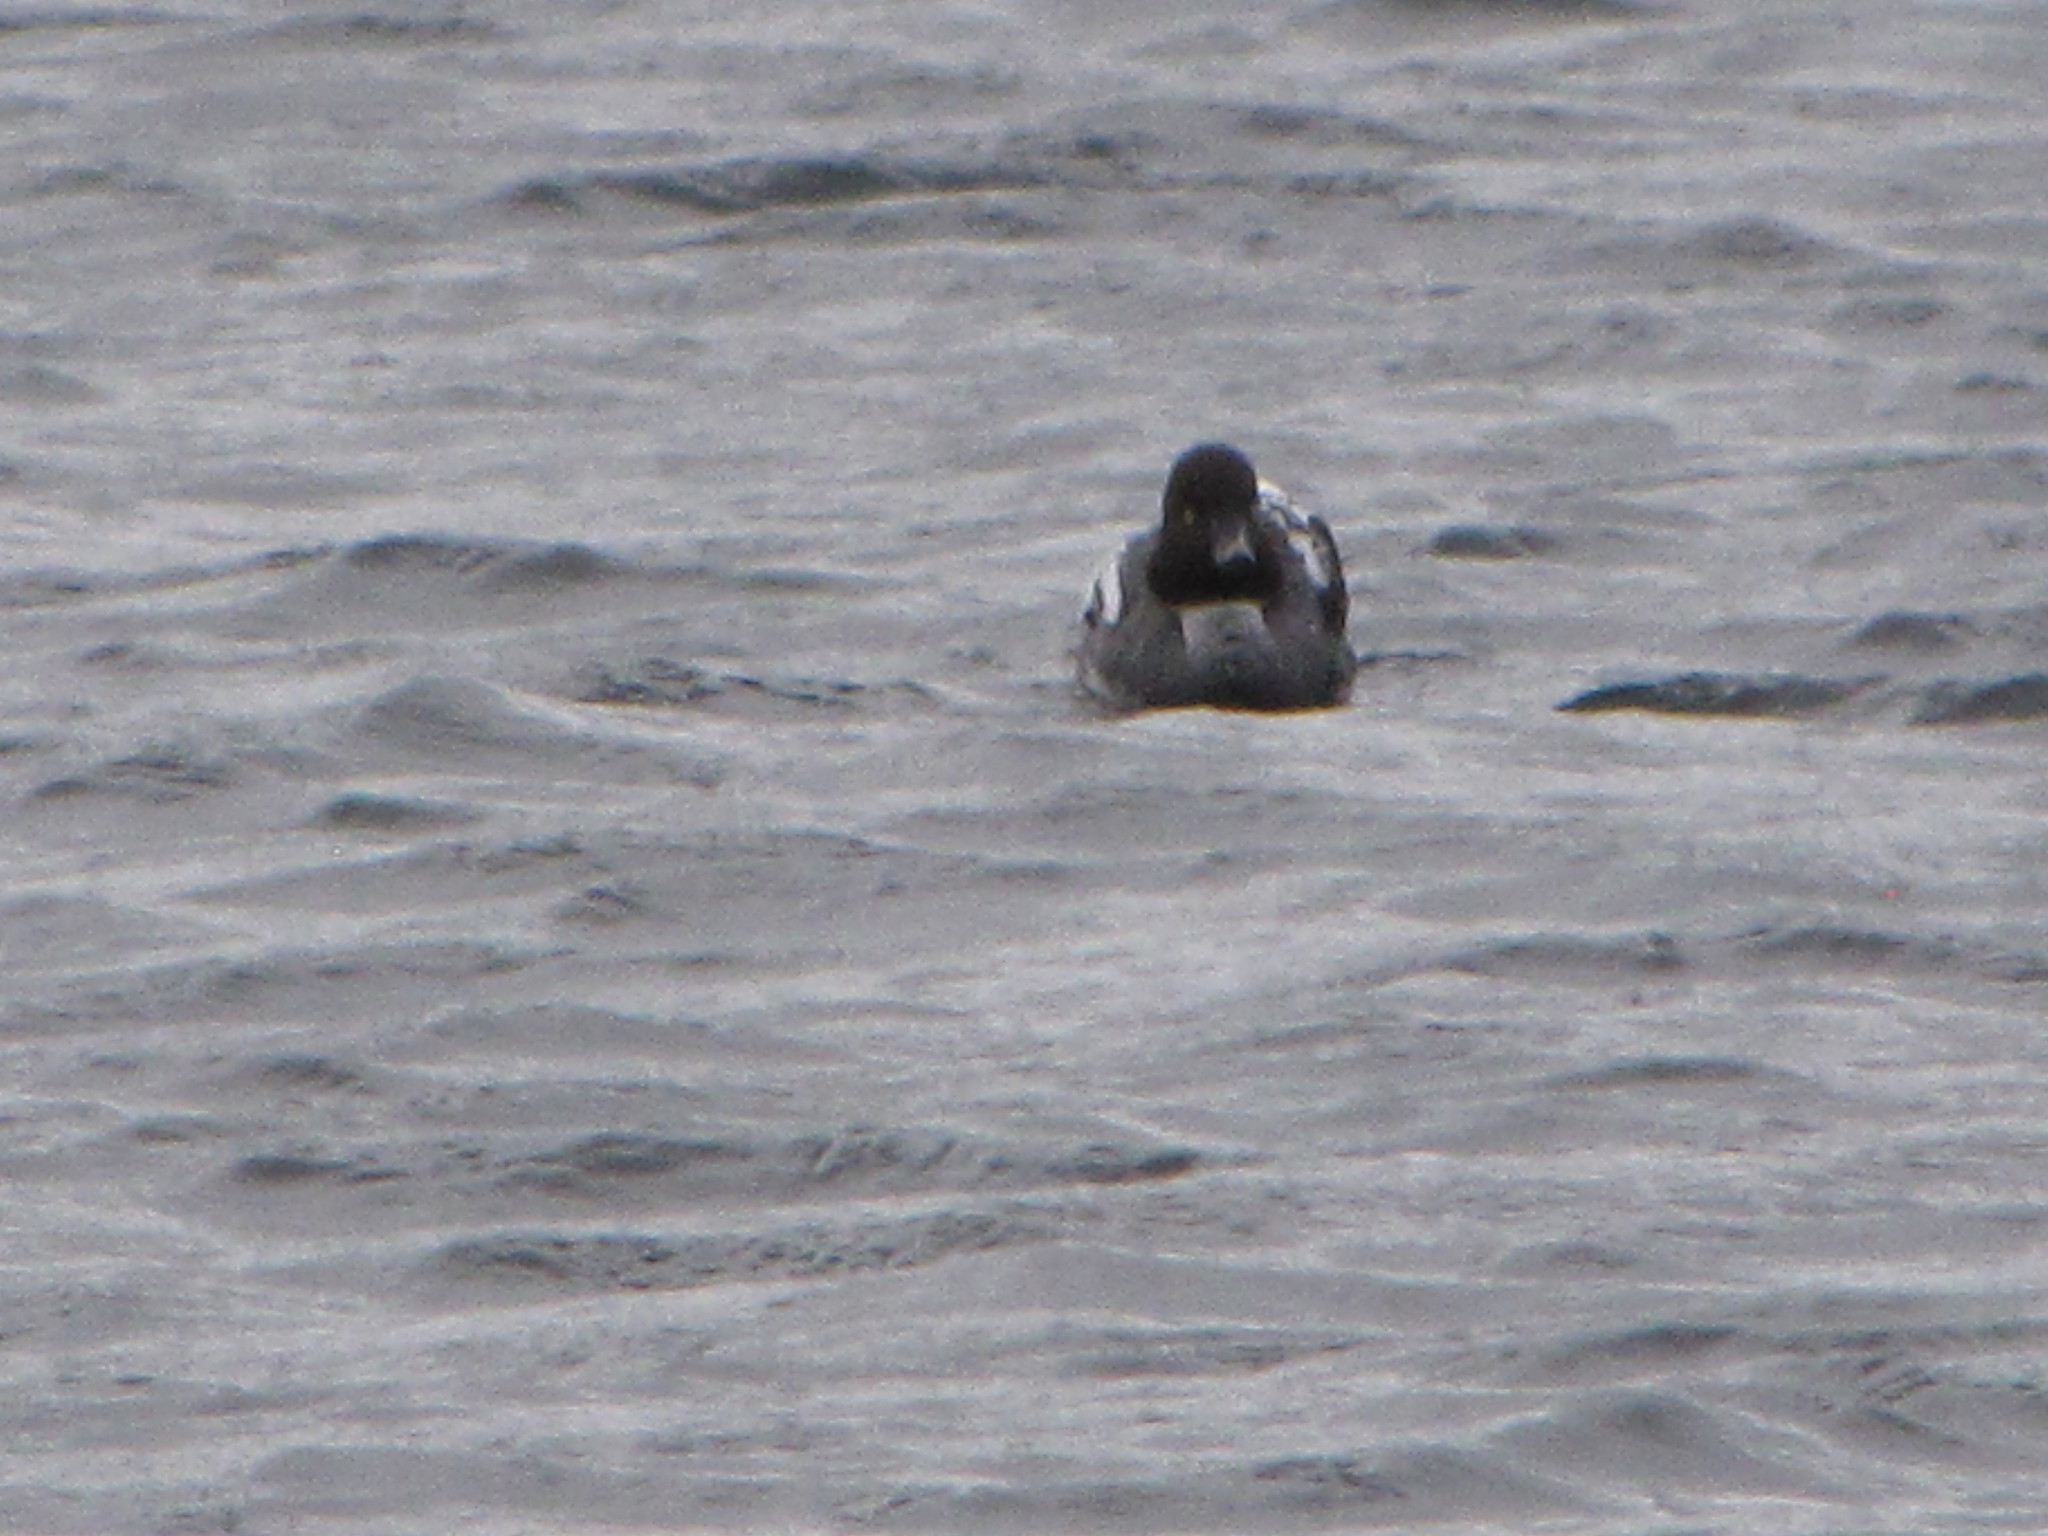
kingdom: Animalia
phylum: Chordata
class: Aves
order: Anseriformes
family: Anatidae
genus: Bucephala
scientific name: Bucephala clangula
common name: Common goldeneye
